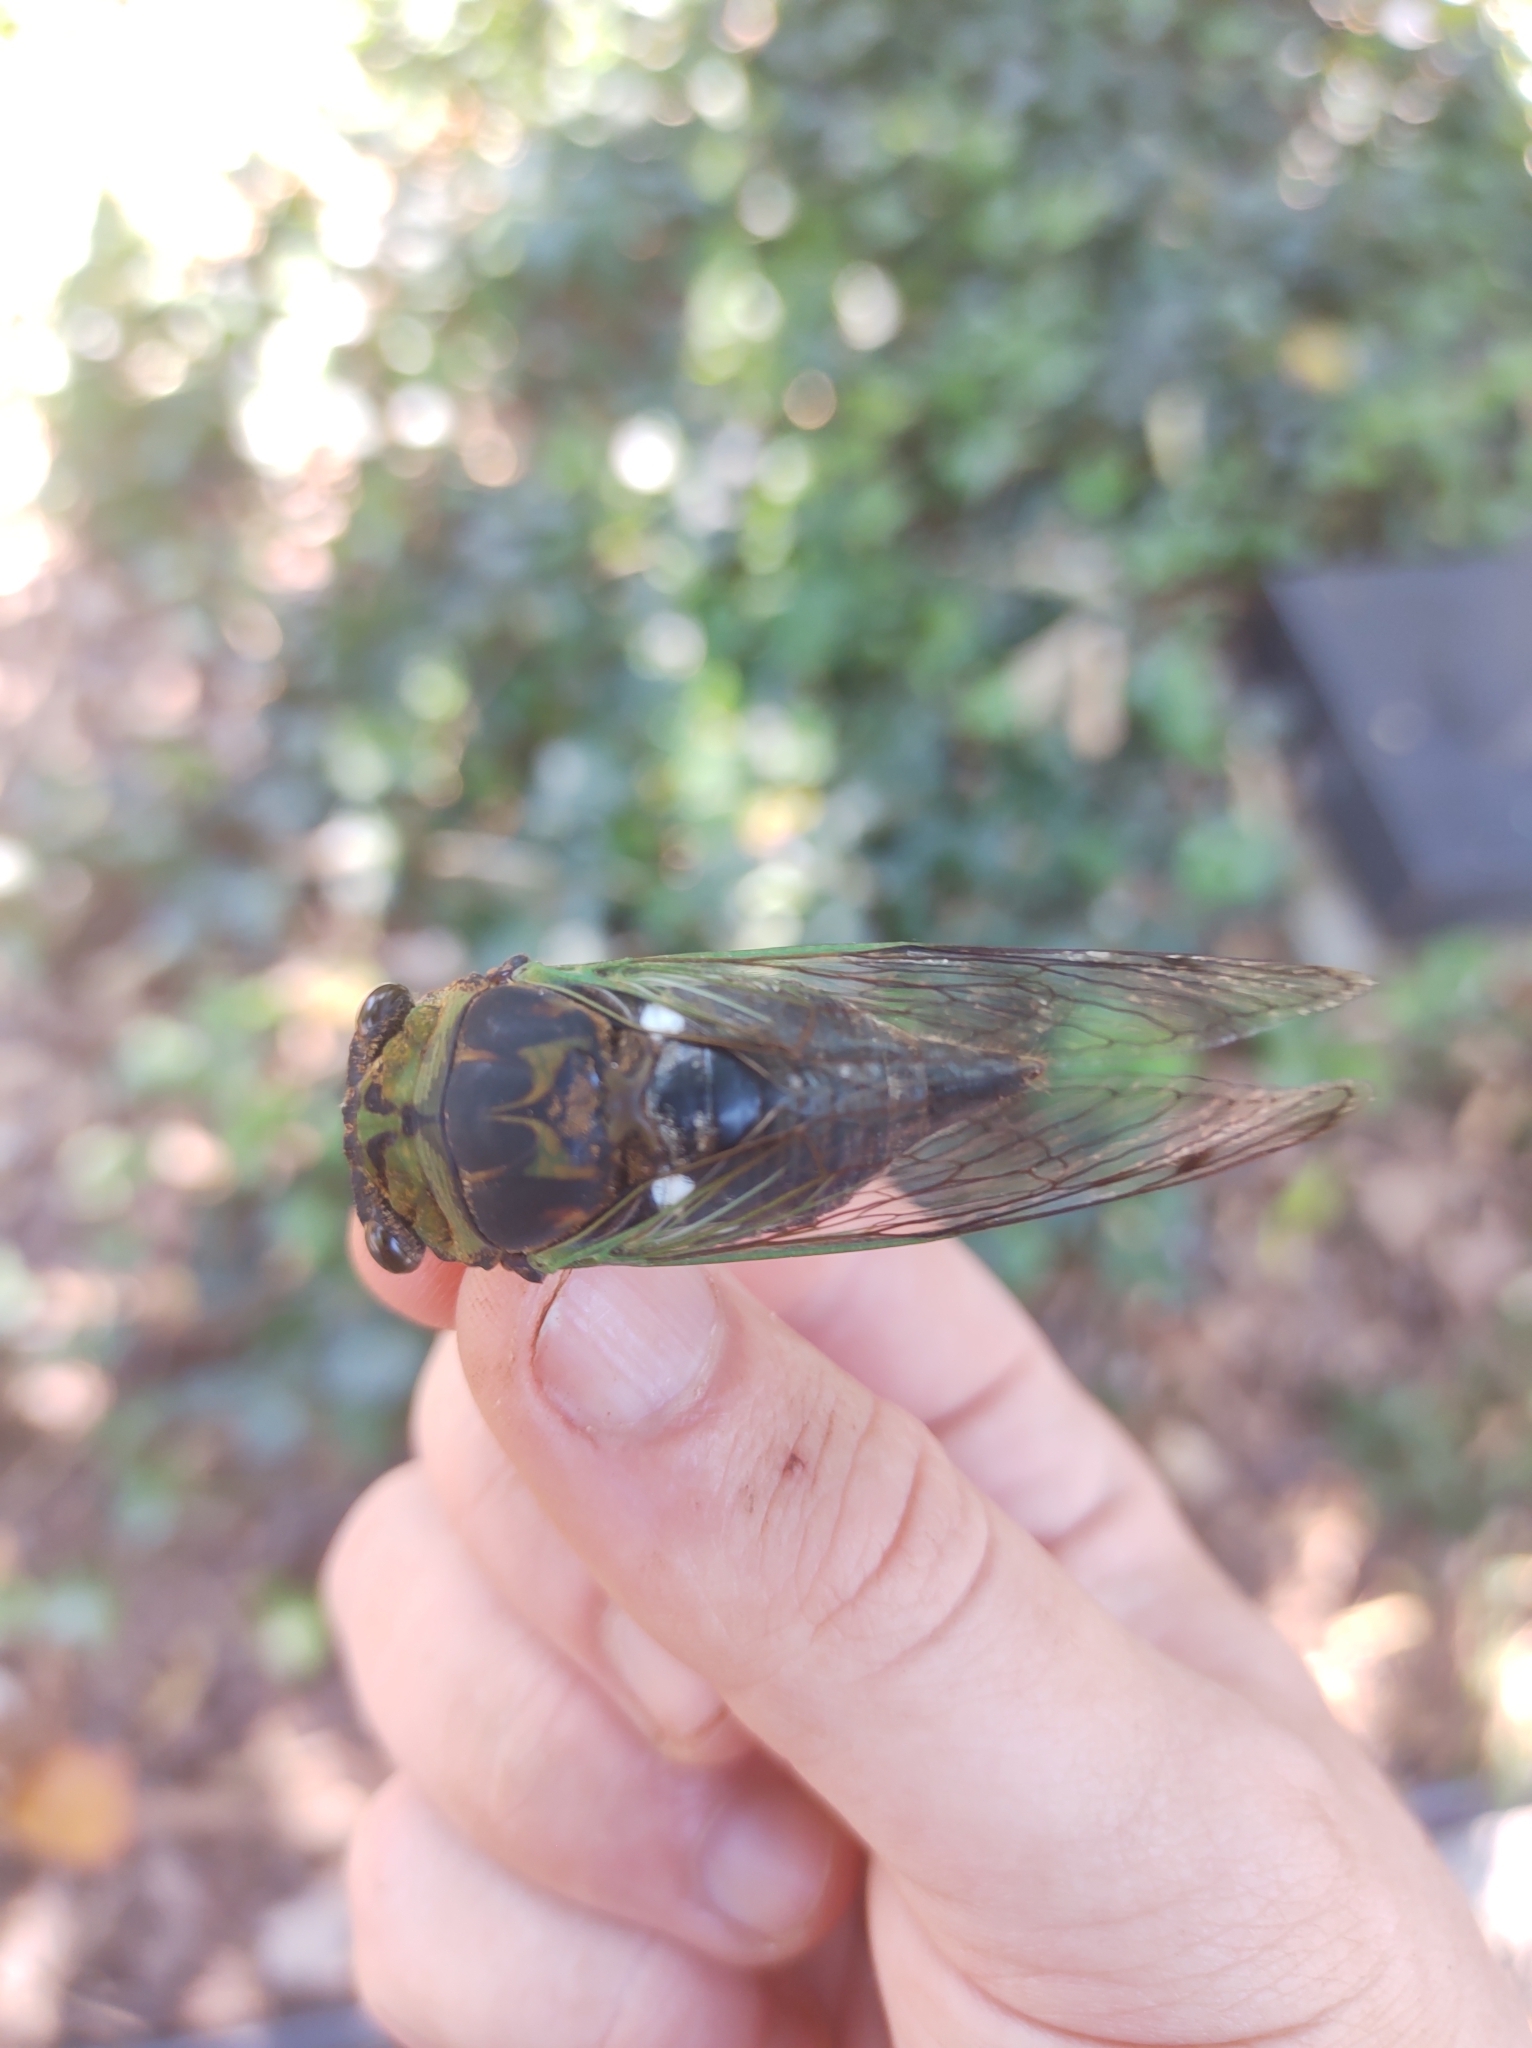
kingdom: Animalia
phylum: Arthropoda
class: Insecta
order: Hemiptera
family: Cicadidae
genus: Neotibicen
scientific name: Neotibicen tibicen
